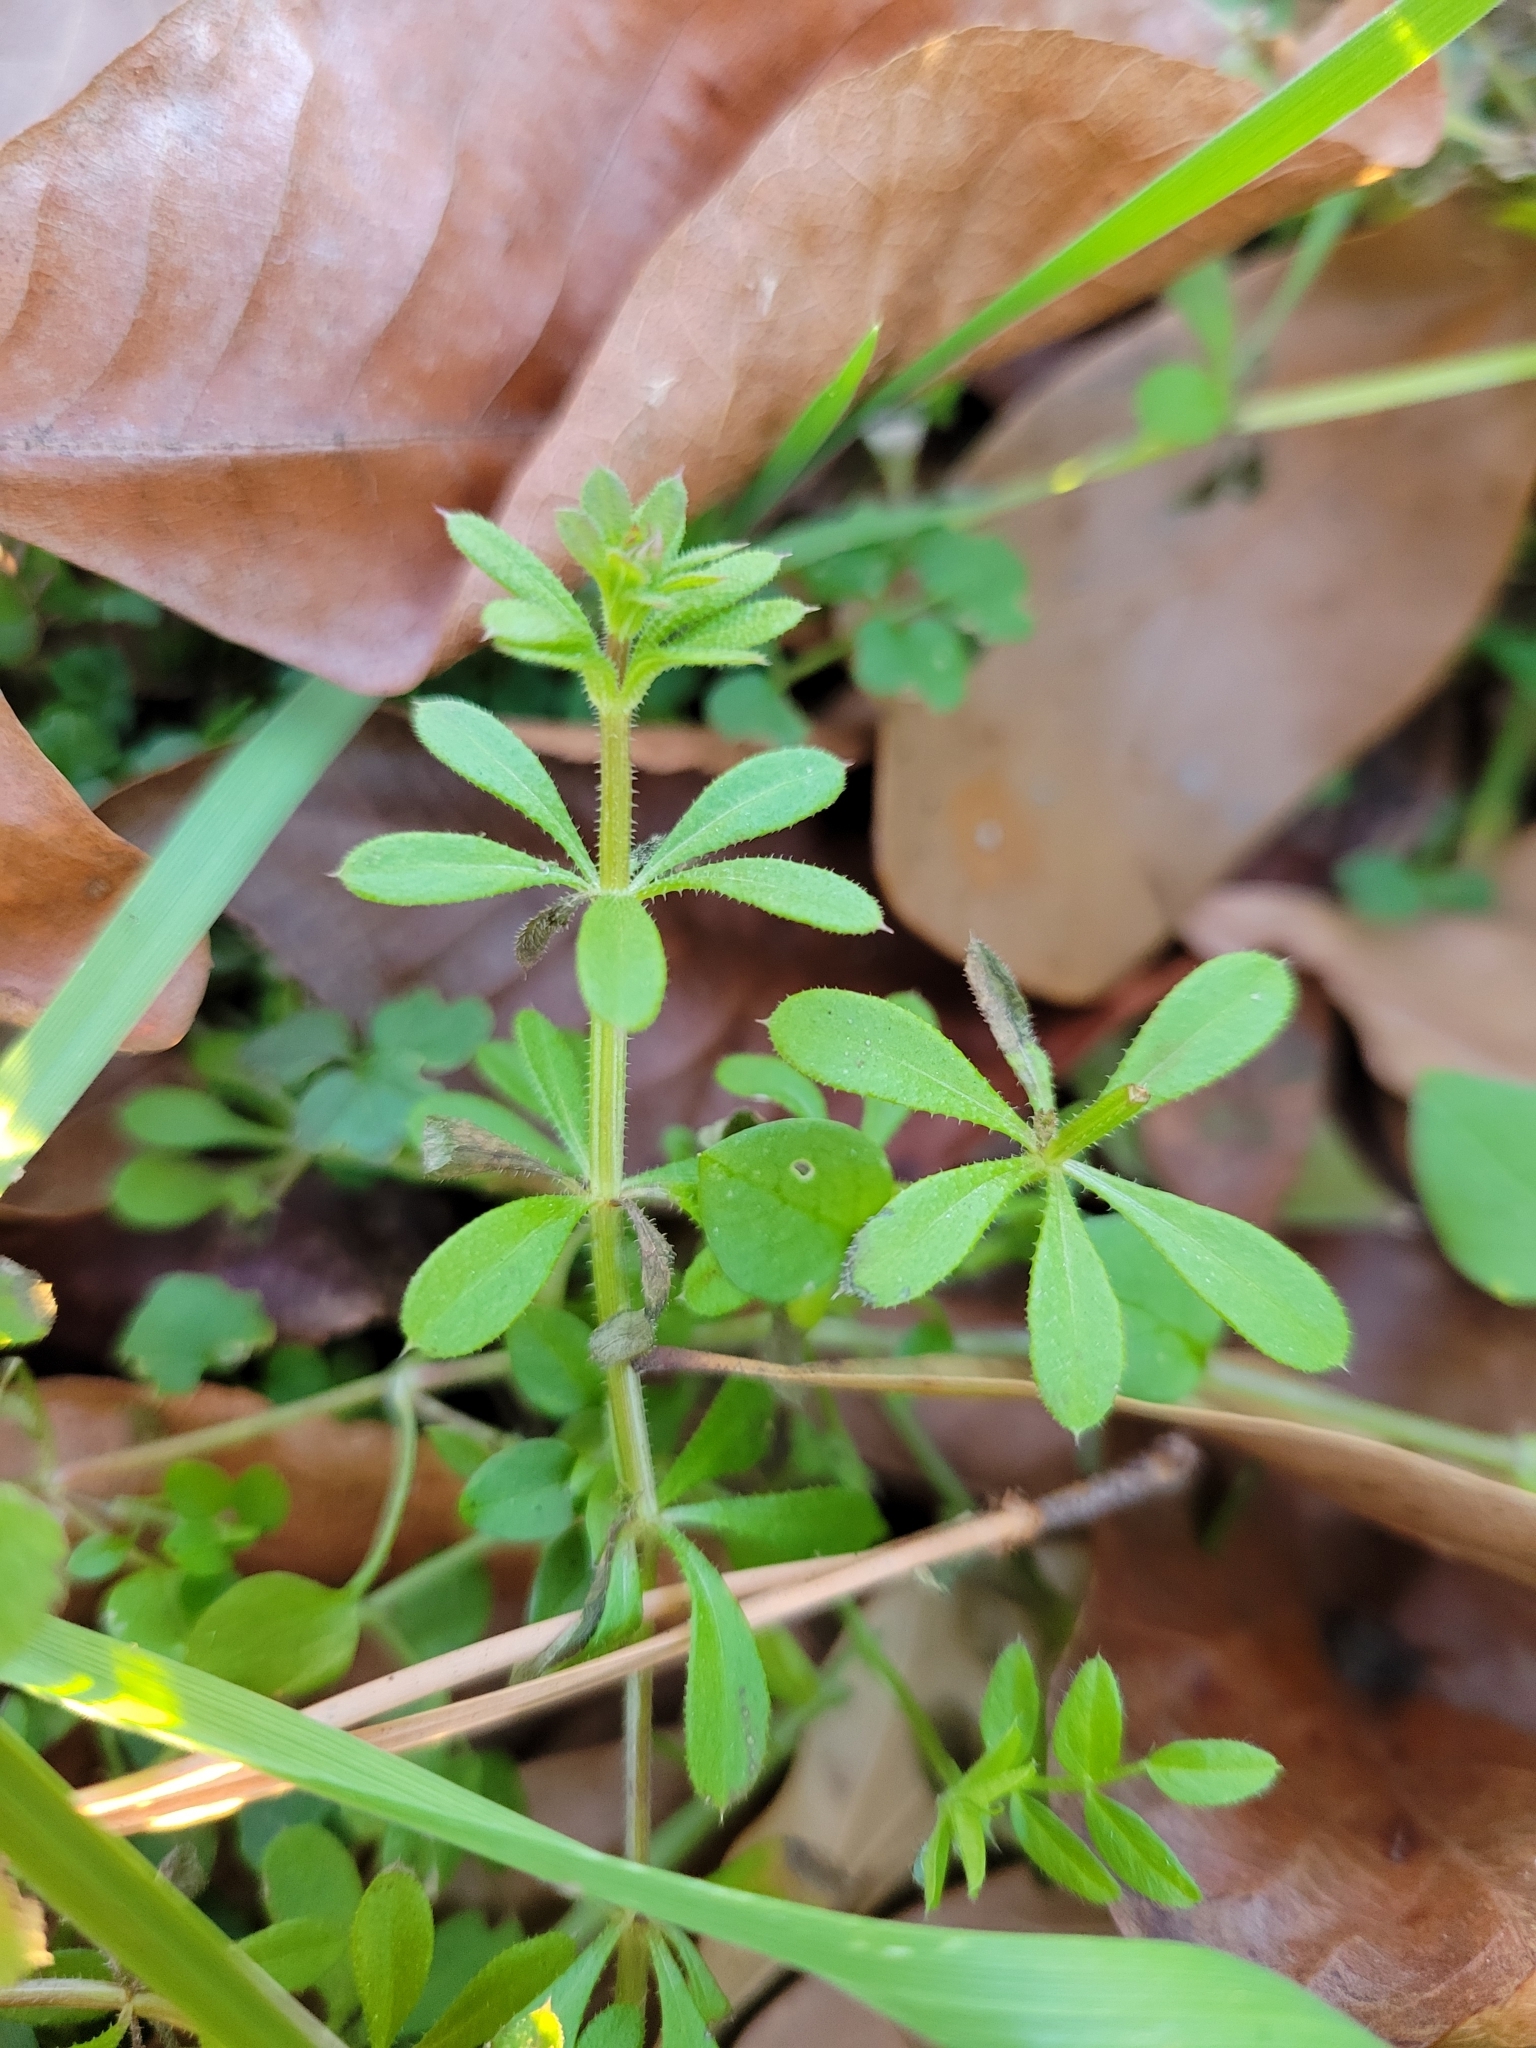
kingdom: Plantae
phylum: Tracheophyta
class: Magnoliopsida
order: Gentianales
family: Rubiaceae
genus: Galium
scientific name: Galium aparine
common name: Cleavers
